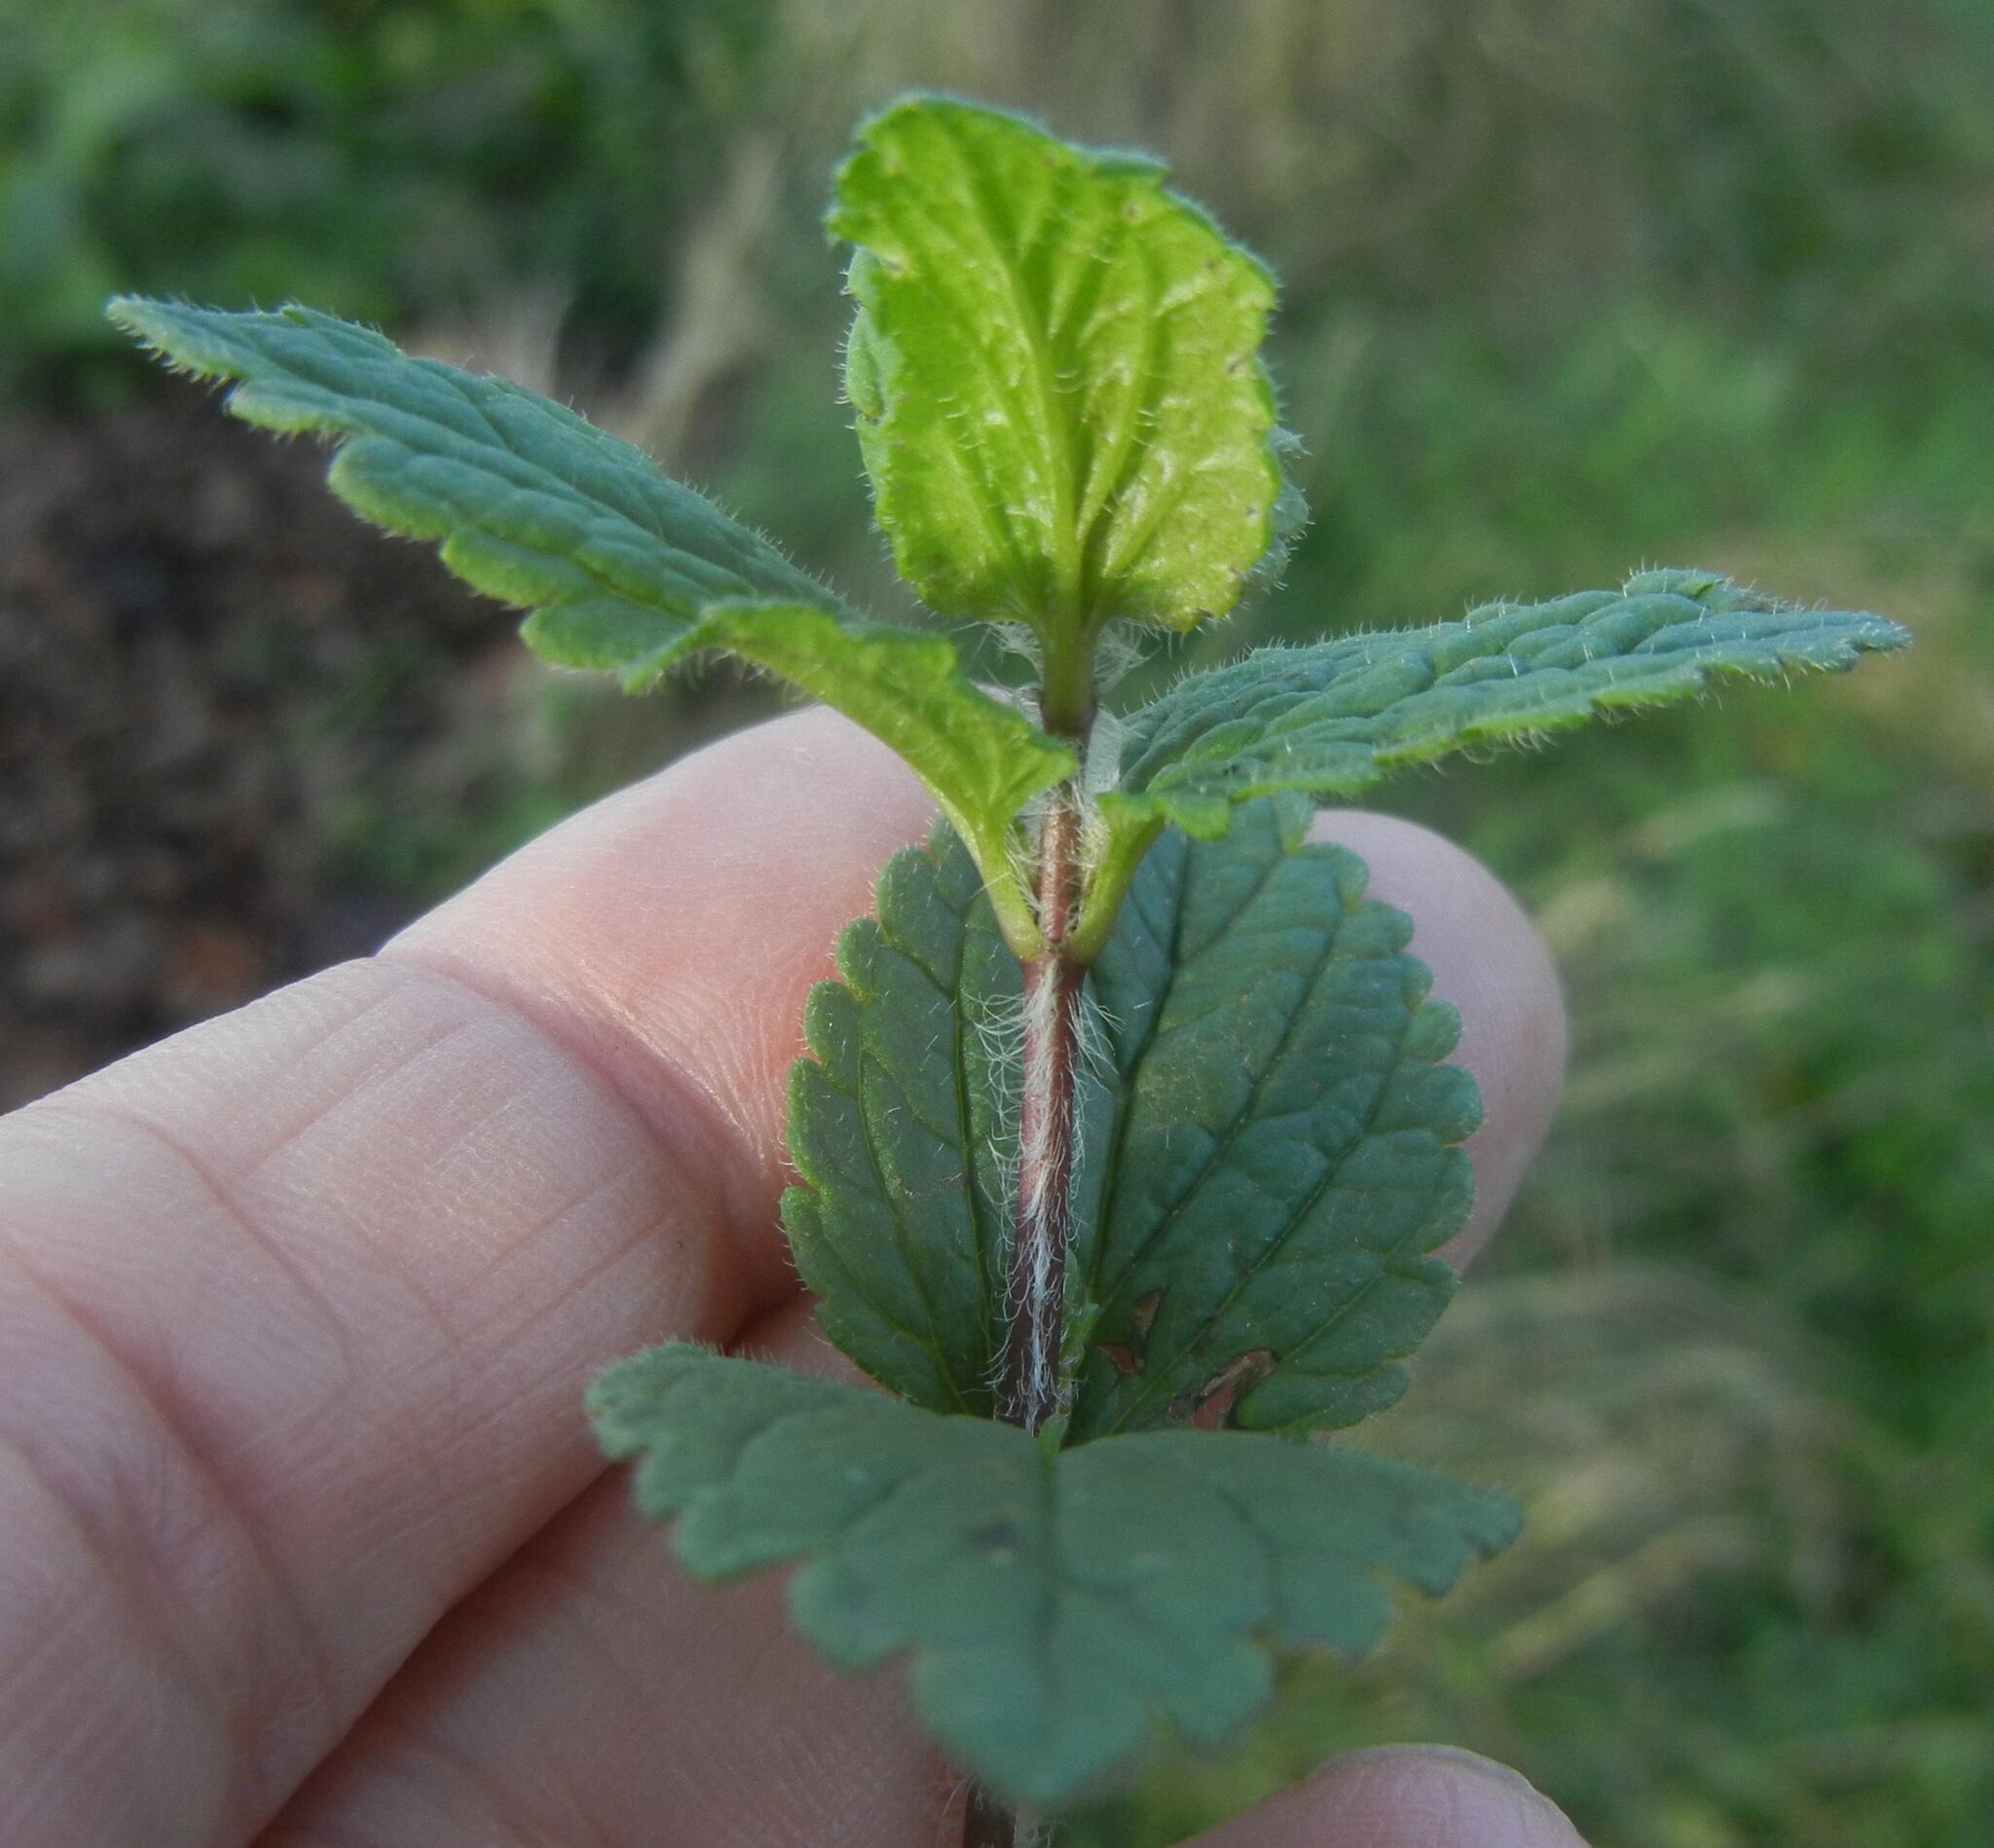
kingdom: Plantae
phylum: Tracheophyta
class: Magnoliopsida
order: Lamiales
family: Plantaginaceae
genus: Veronica
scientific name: Veronica chamaedrys
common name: Germander speedwell
